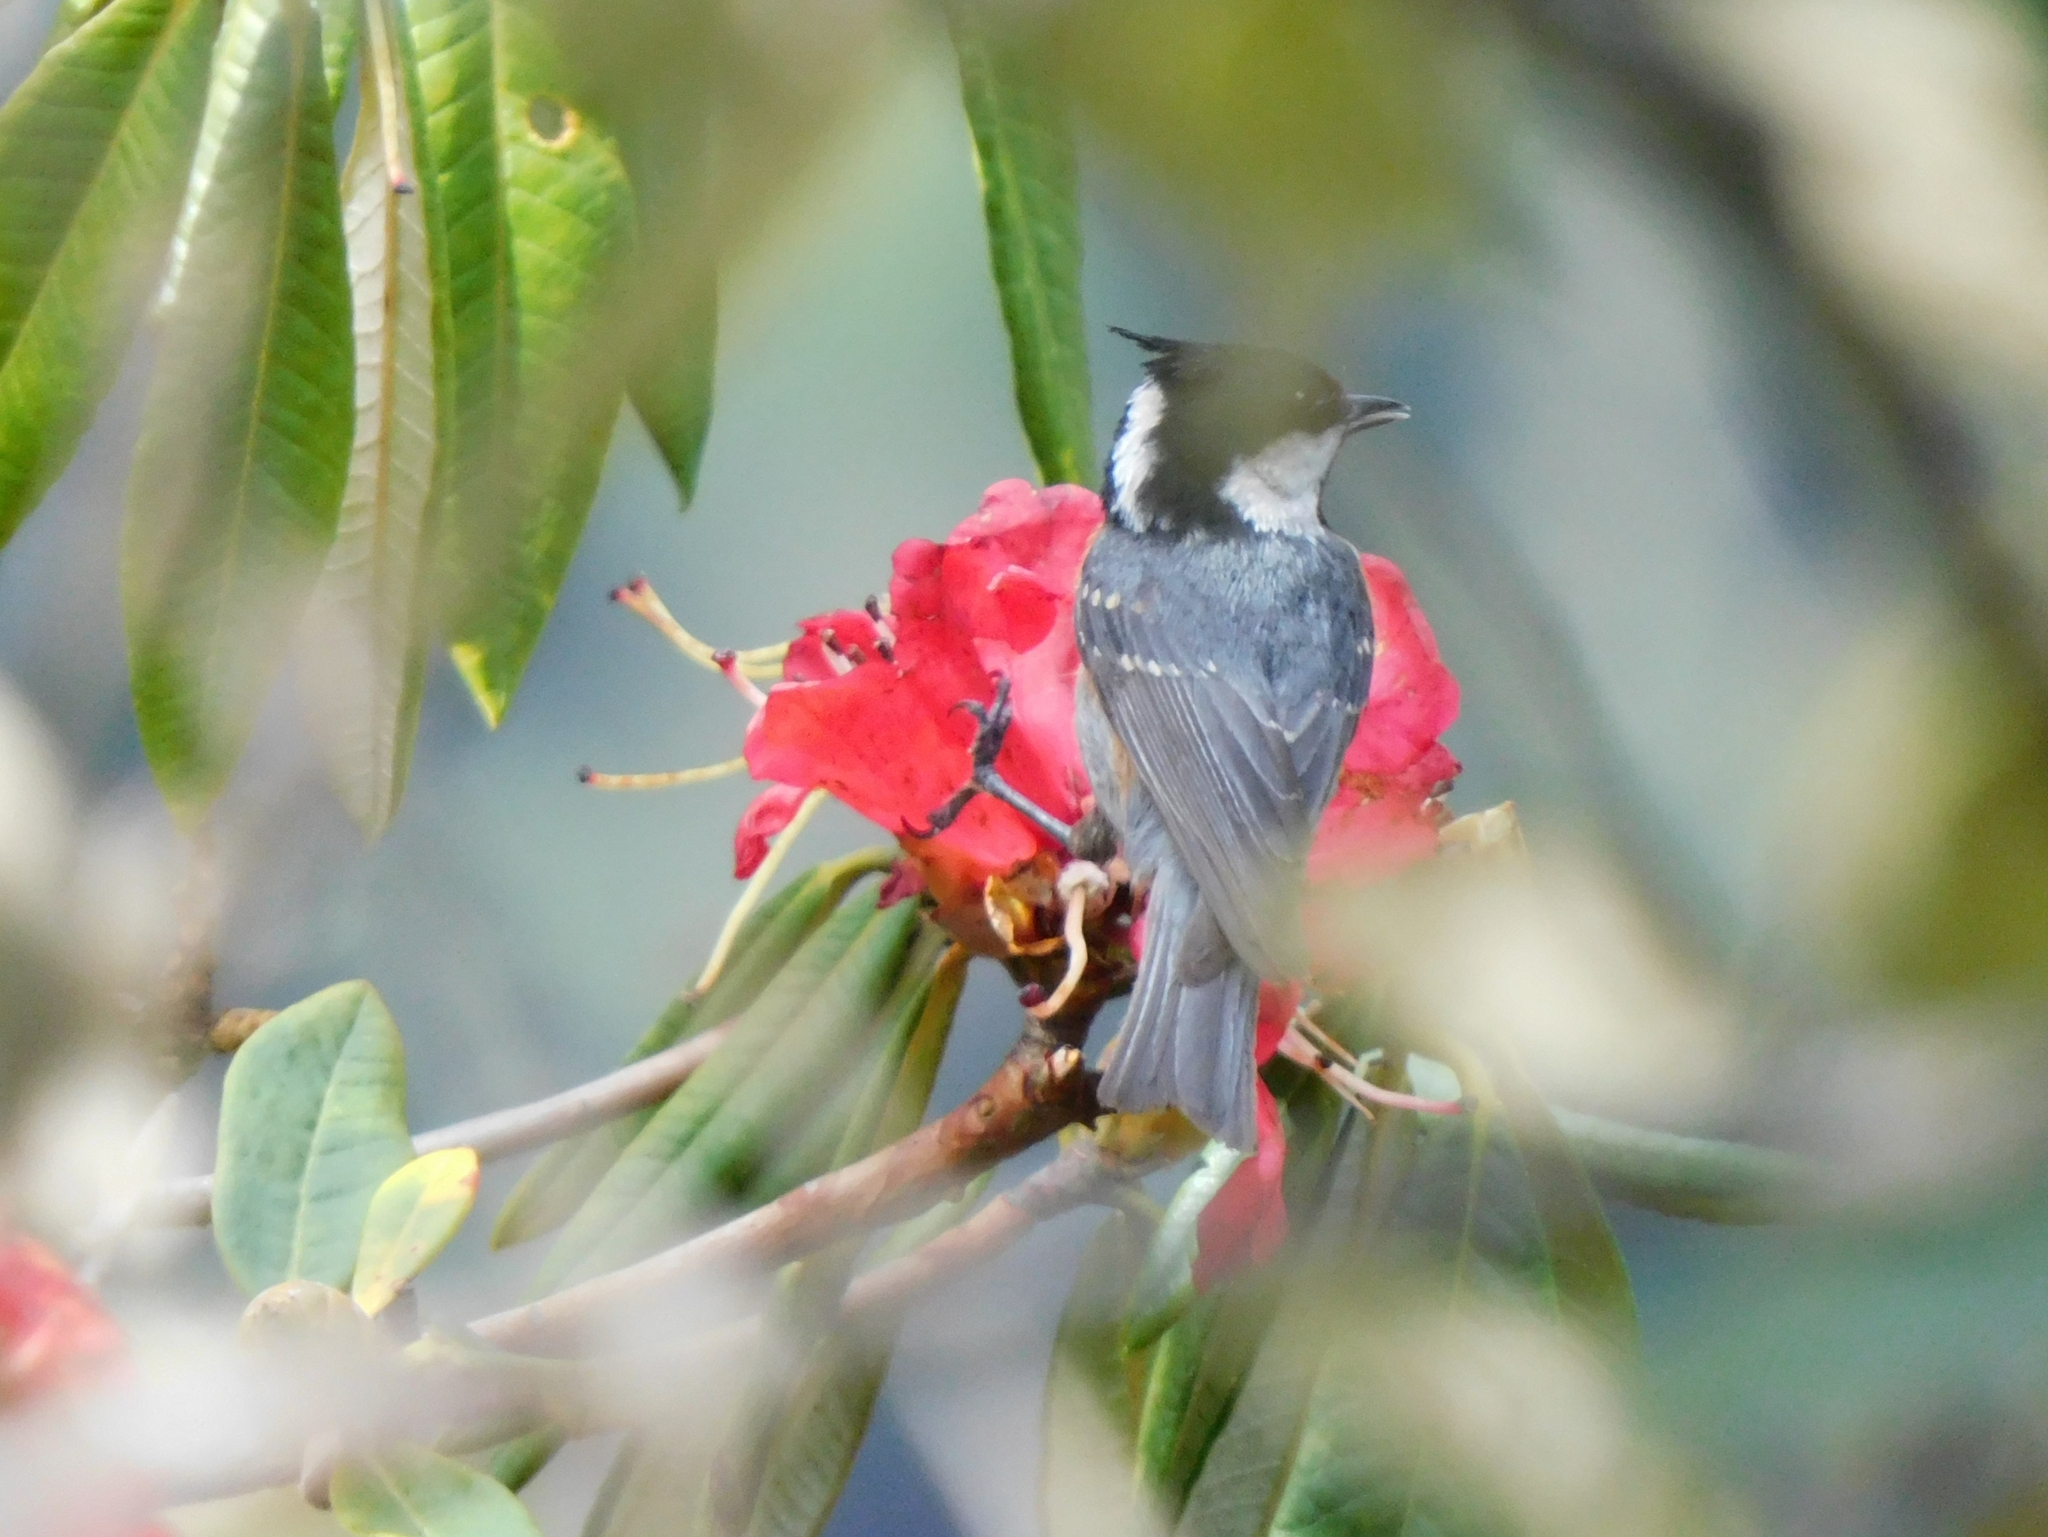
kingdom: Animalia
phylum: Chordata
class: Aves
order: Passeriformes
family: Paridae
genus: Periparus
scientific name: Periparus ater
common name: Coal tit
